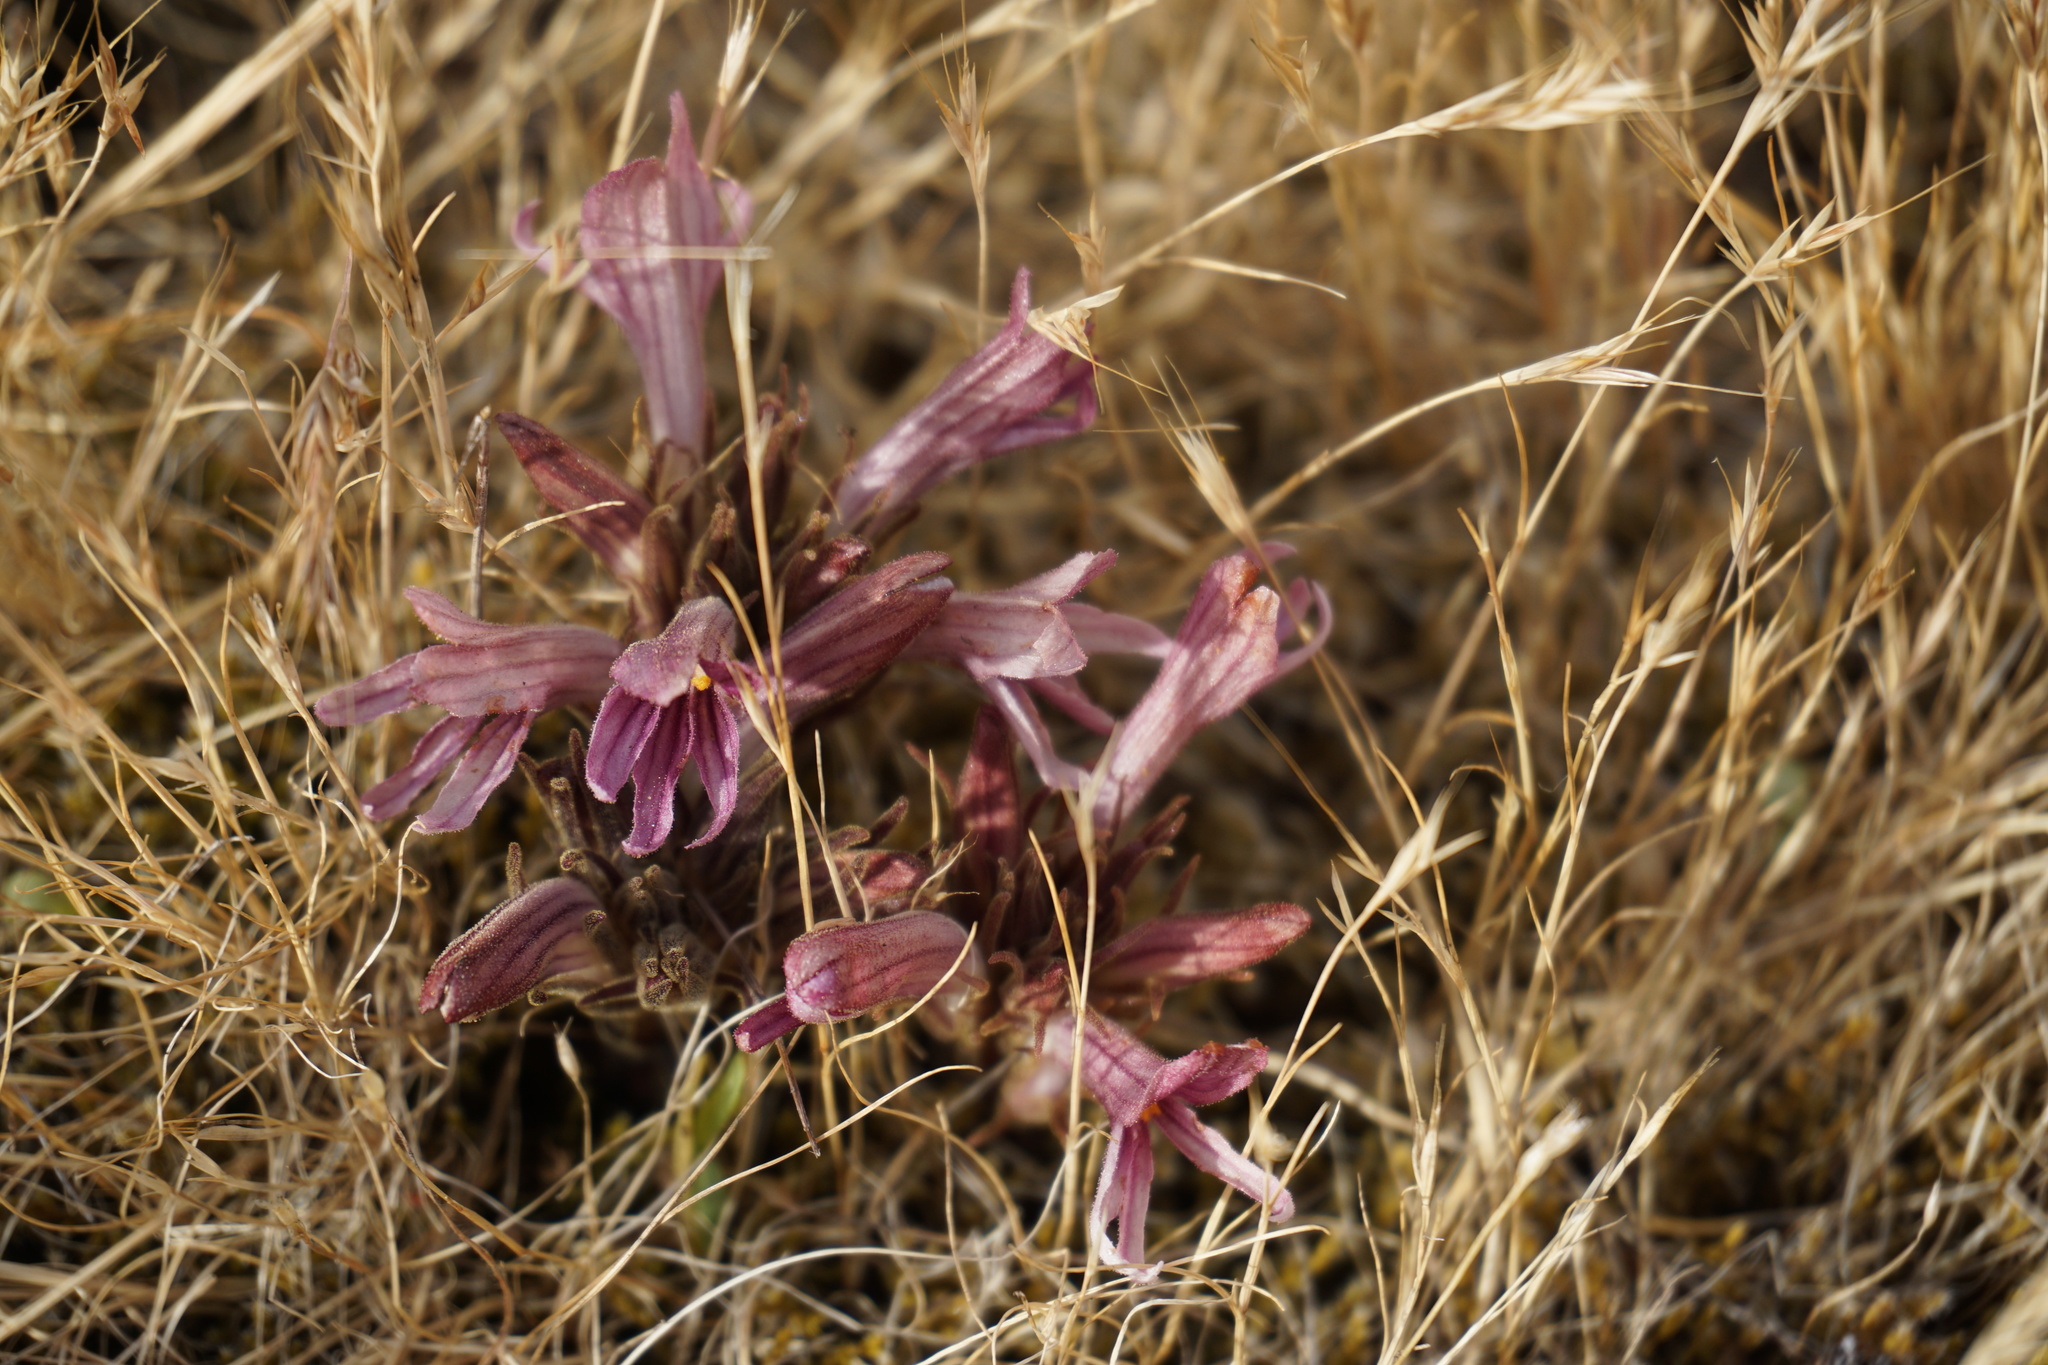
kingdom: Plantae
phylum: Tracheophyta
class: Magnoliopsida
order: Lamiales
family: Orobanchaceae
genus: Aphyllon
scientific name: Aphyllon californicum
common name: California broomrape
